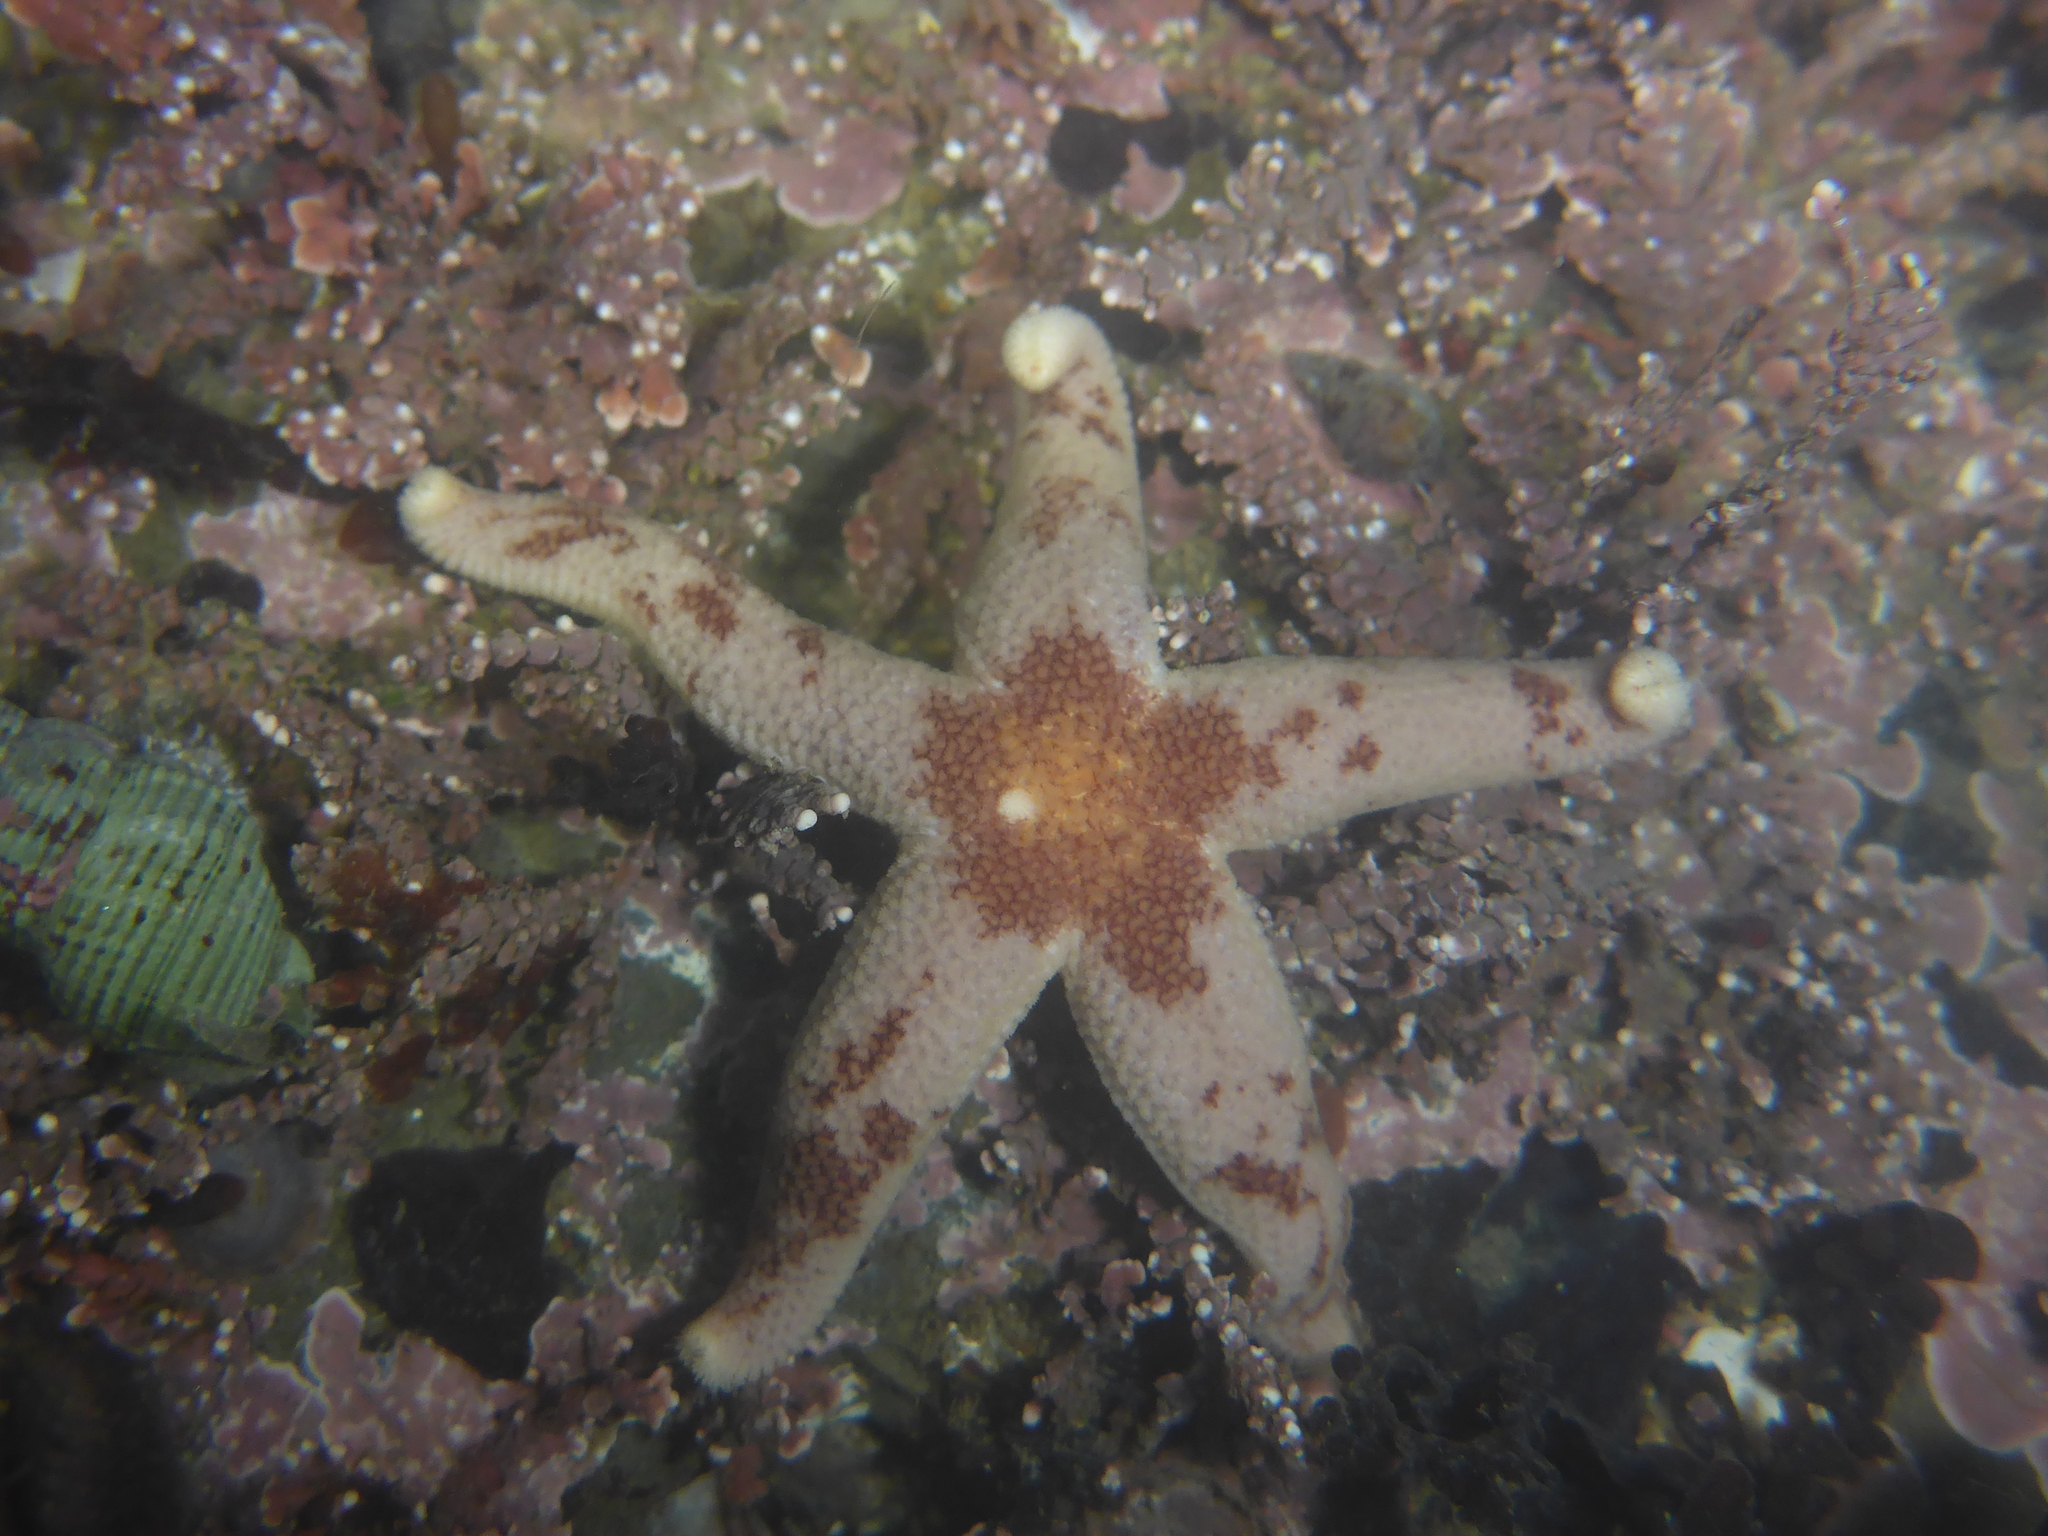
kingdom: Animalia
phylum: Echinodermata
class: Asteroidea
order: Spinulosida
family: Echinasteridae
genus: Henricia
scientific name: Henricia pumila
